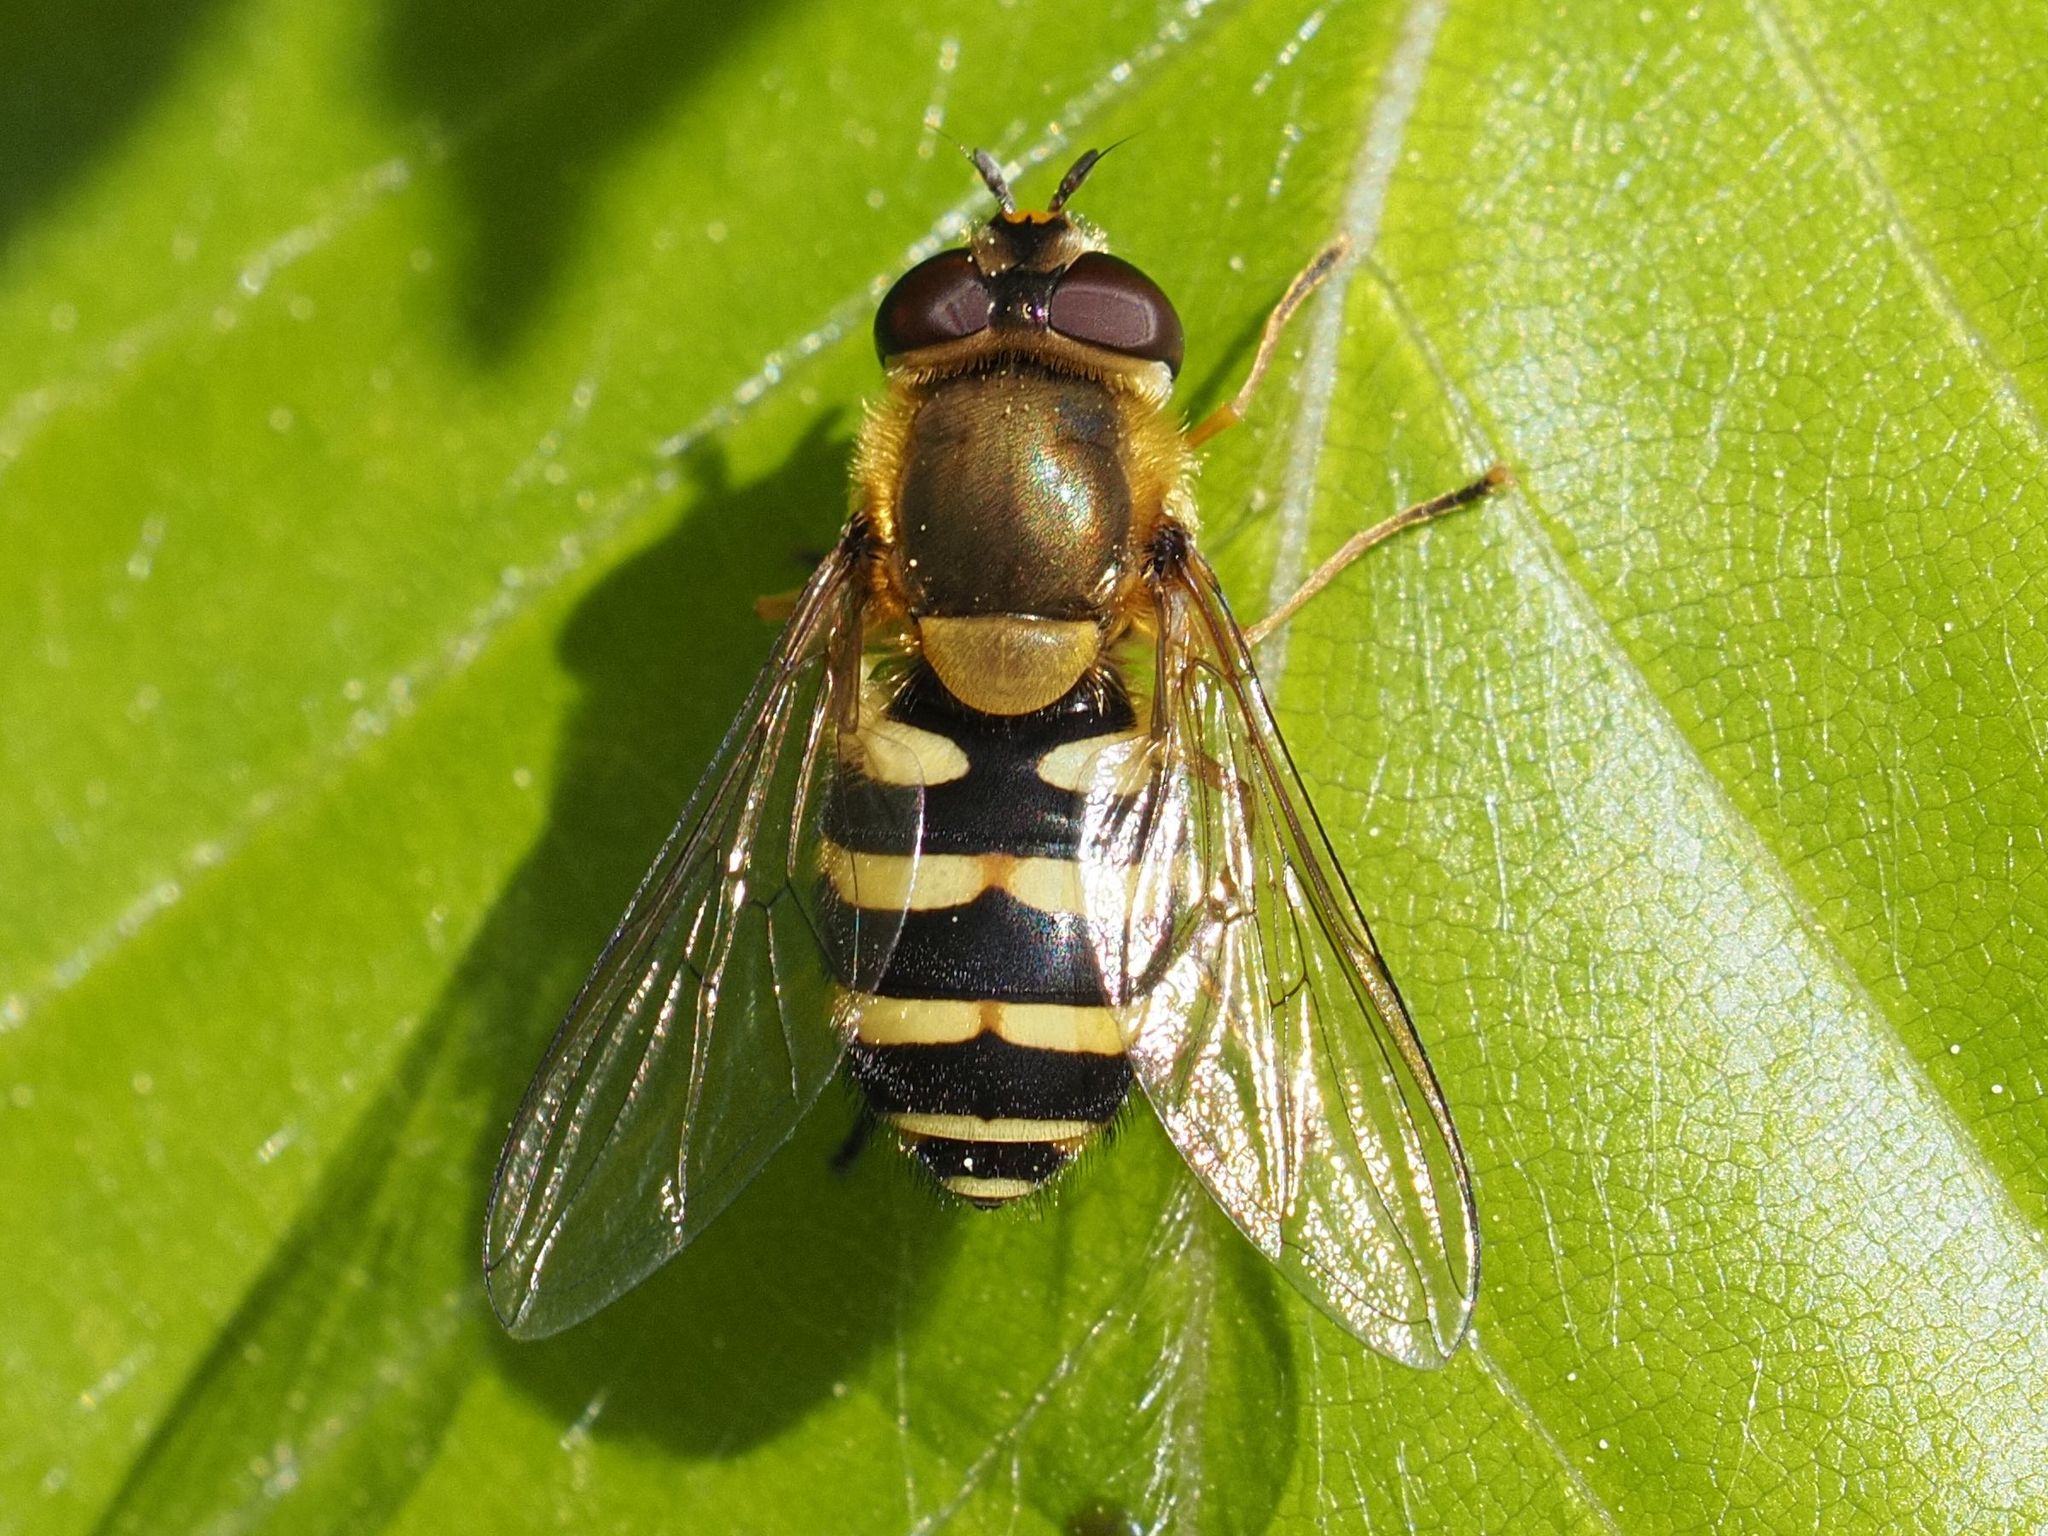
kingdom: Animalia
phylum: Arthropoda
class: Insecta
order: Diptera
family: Syrphidae
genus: Syrphus
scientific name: Syrphus
